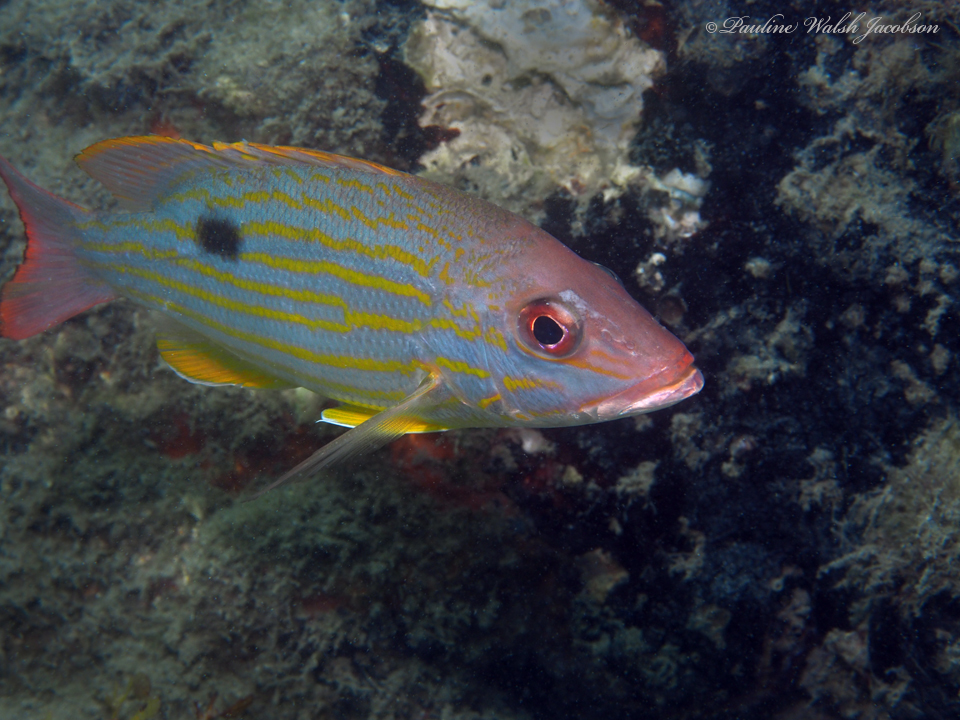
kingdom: Animalia
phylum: Chordata
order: Perciformes
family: Lutjanidae
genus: Lutjanus
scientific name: Lutjanus synagris
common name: Lane snapper
